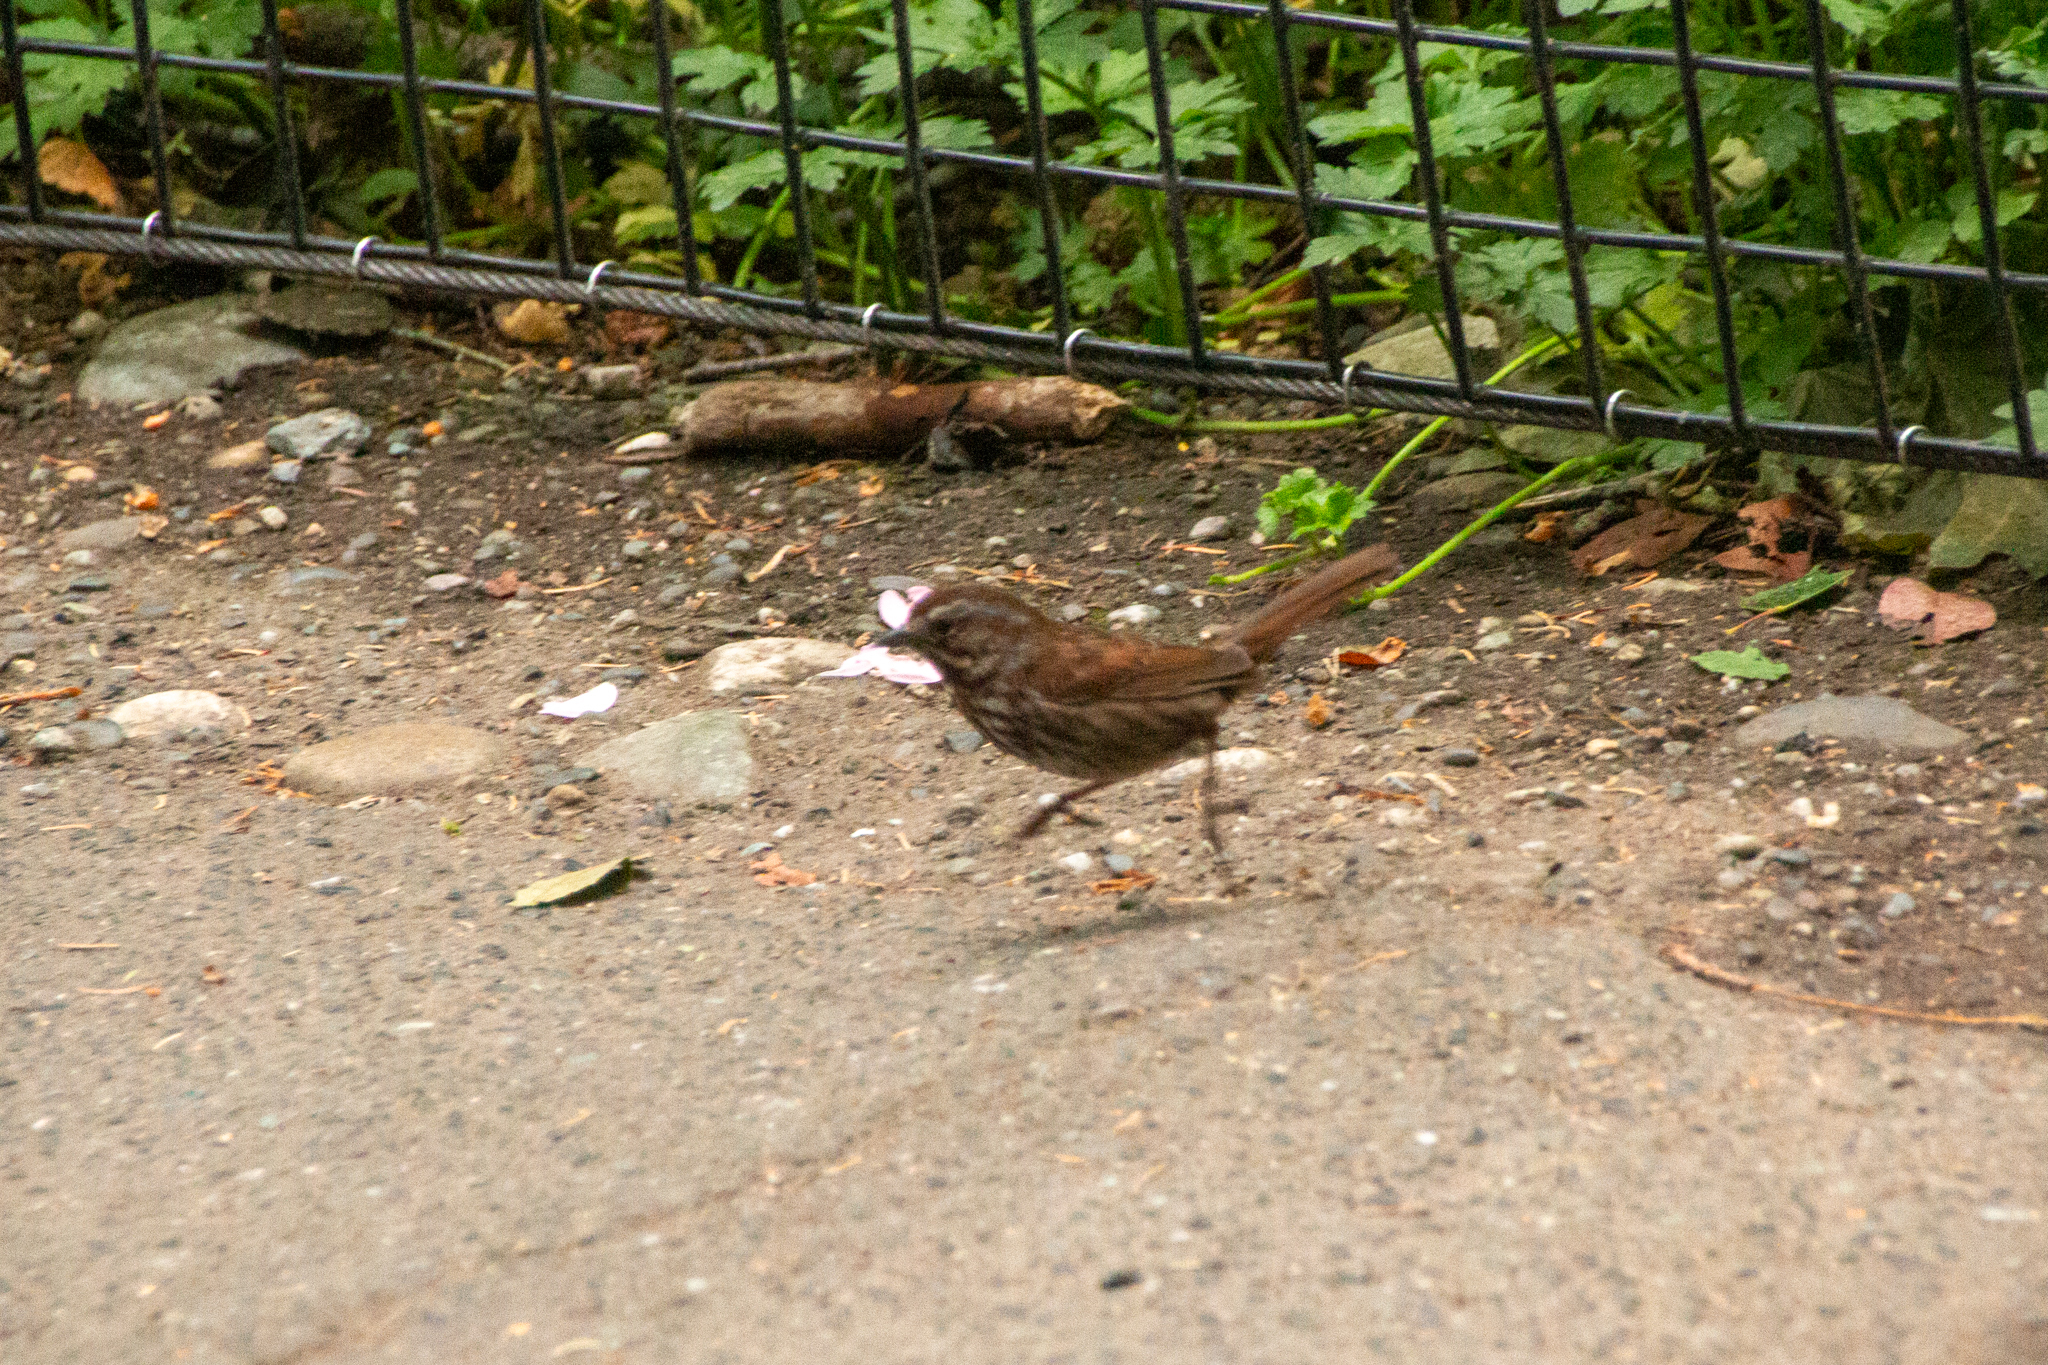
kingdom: Animalia
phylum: Chordata
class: Aves
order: Passeriformes
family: Passerellidae
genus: Melospiza
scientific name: Melospiza melodia
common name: Song sparrow
